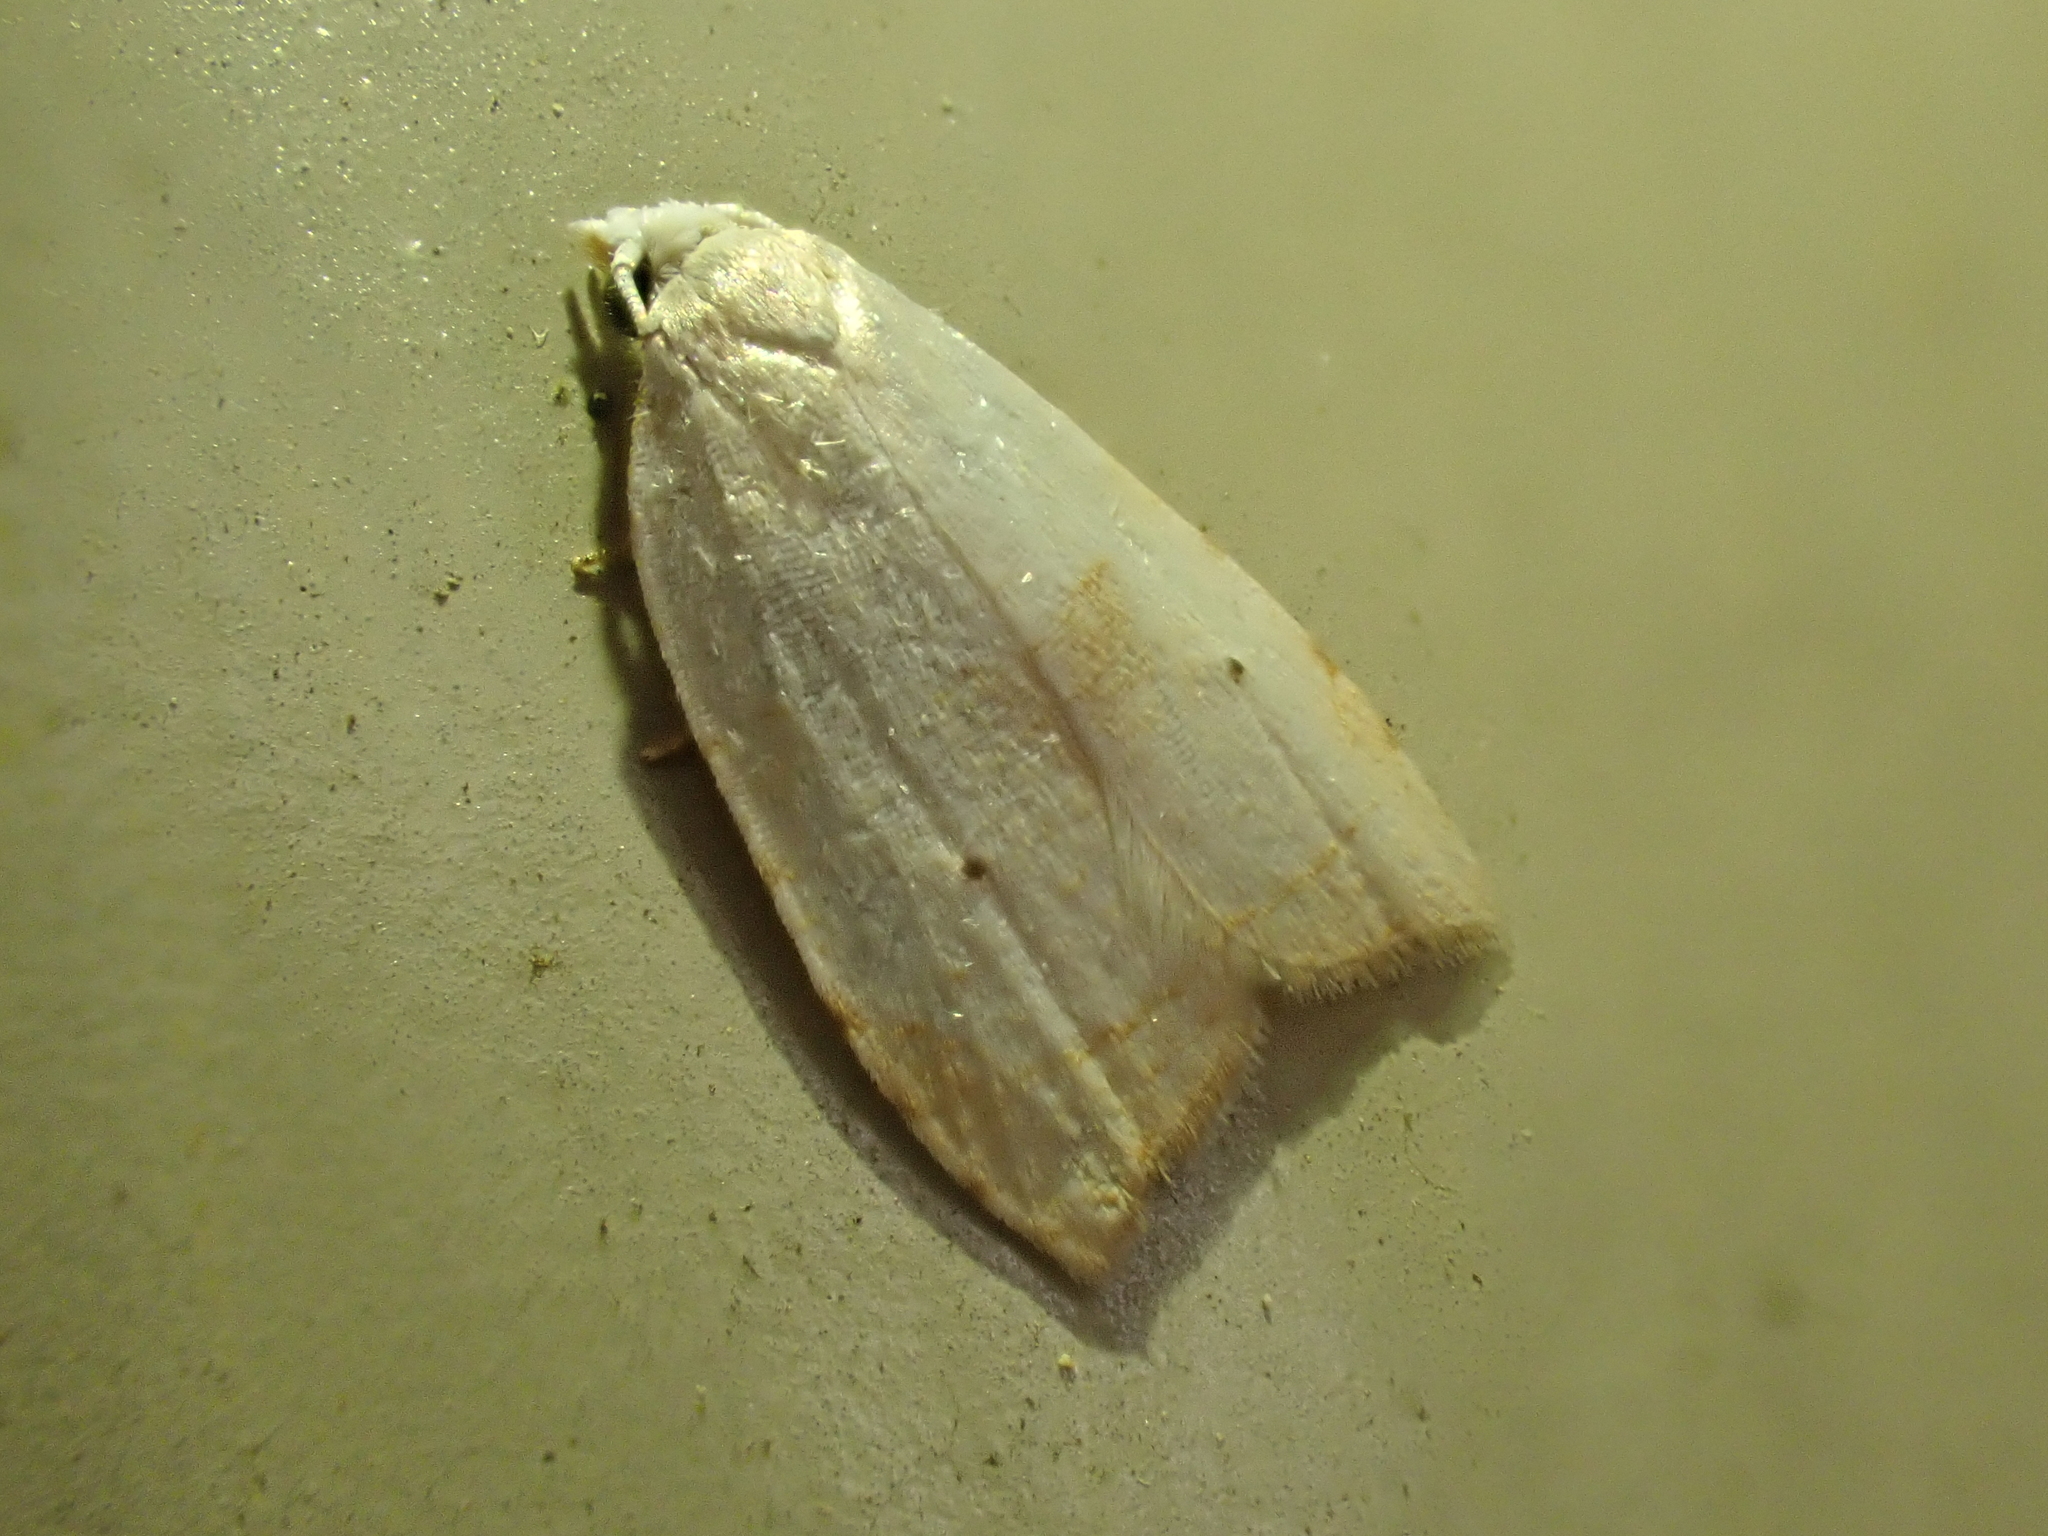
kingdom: Animalia
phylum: Arthropoda
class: Insecta
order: Lepidoptera
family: Tortricidae
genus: Coelostathma
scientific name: Coelostathma discopunctana
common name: Batman moth
